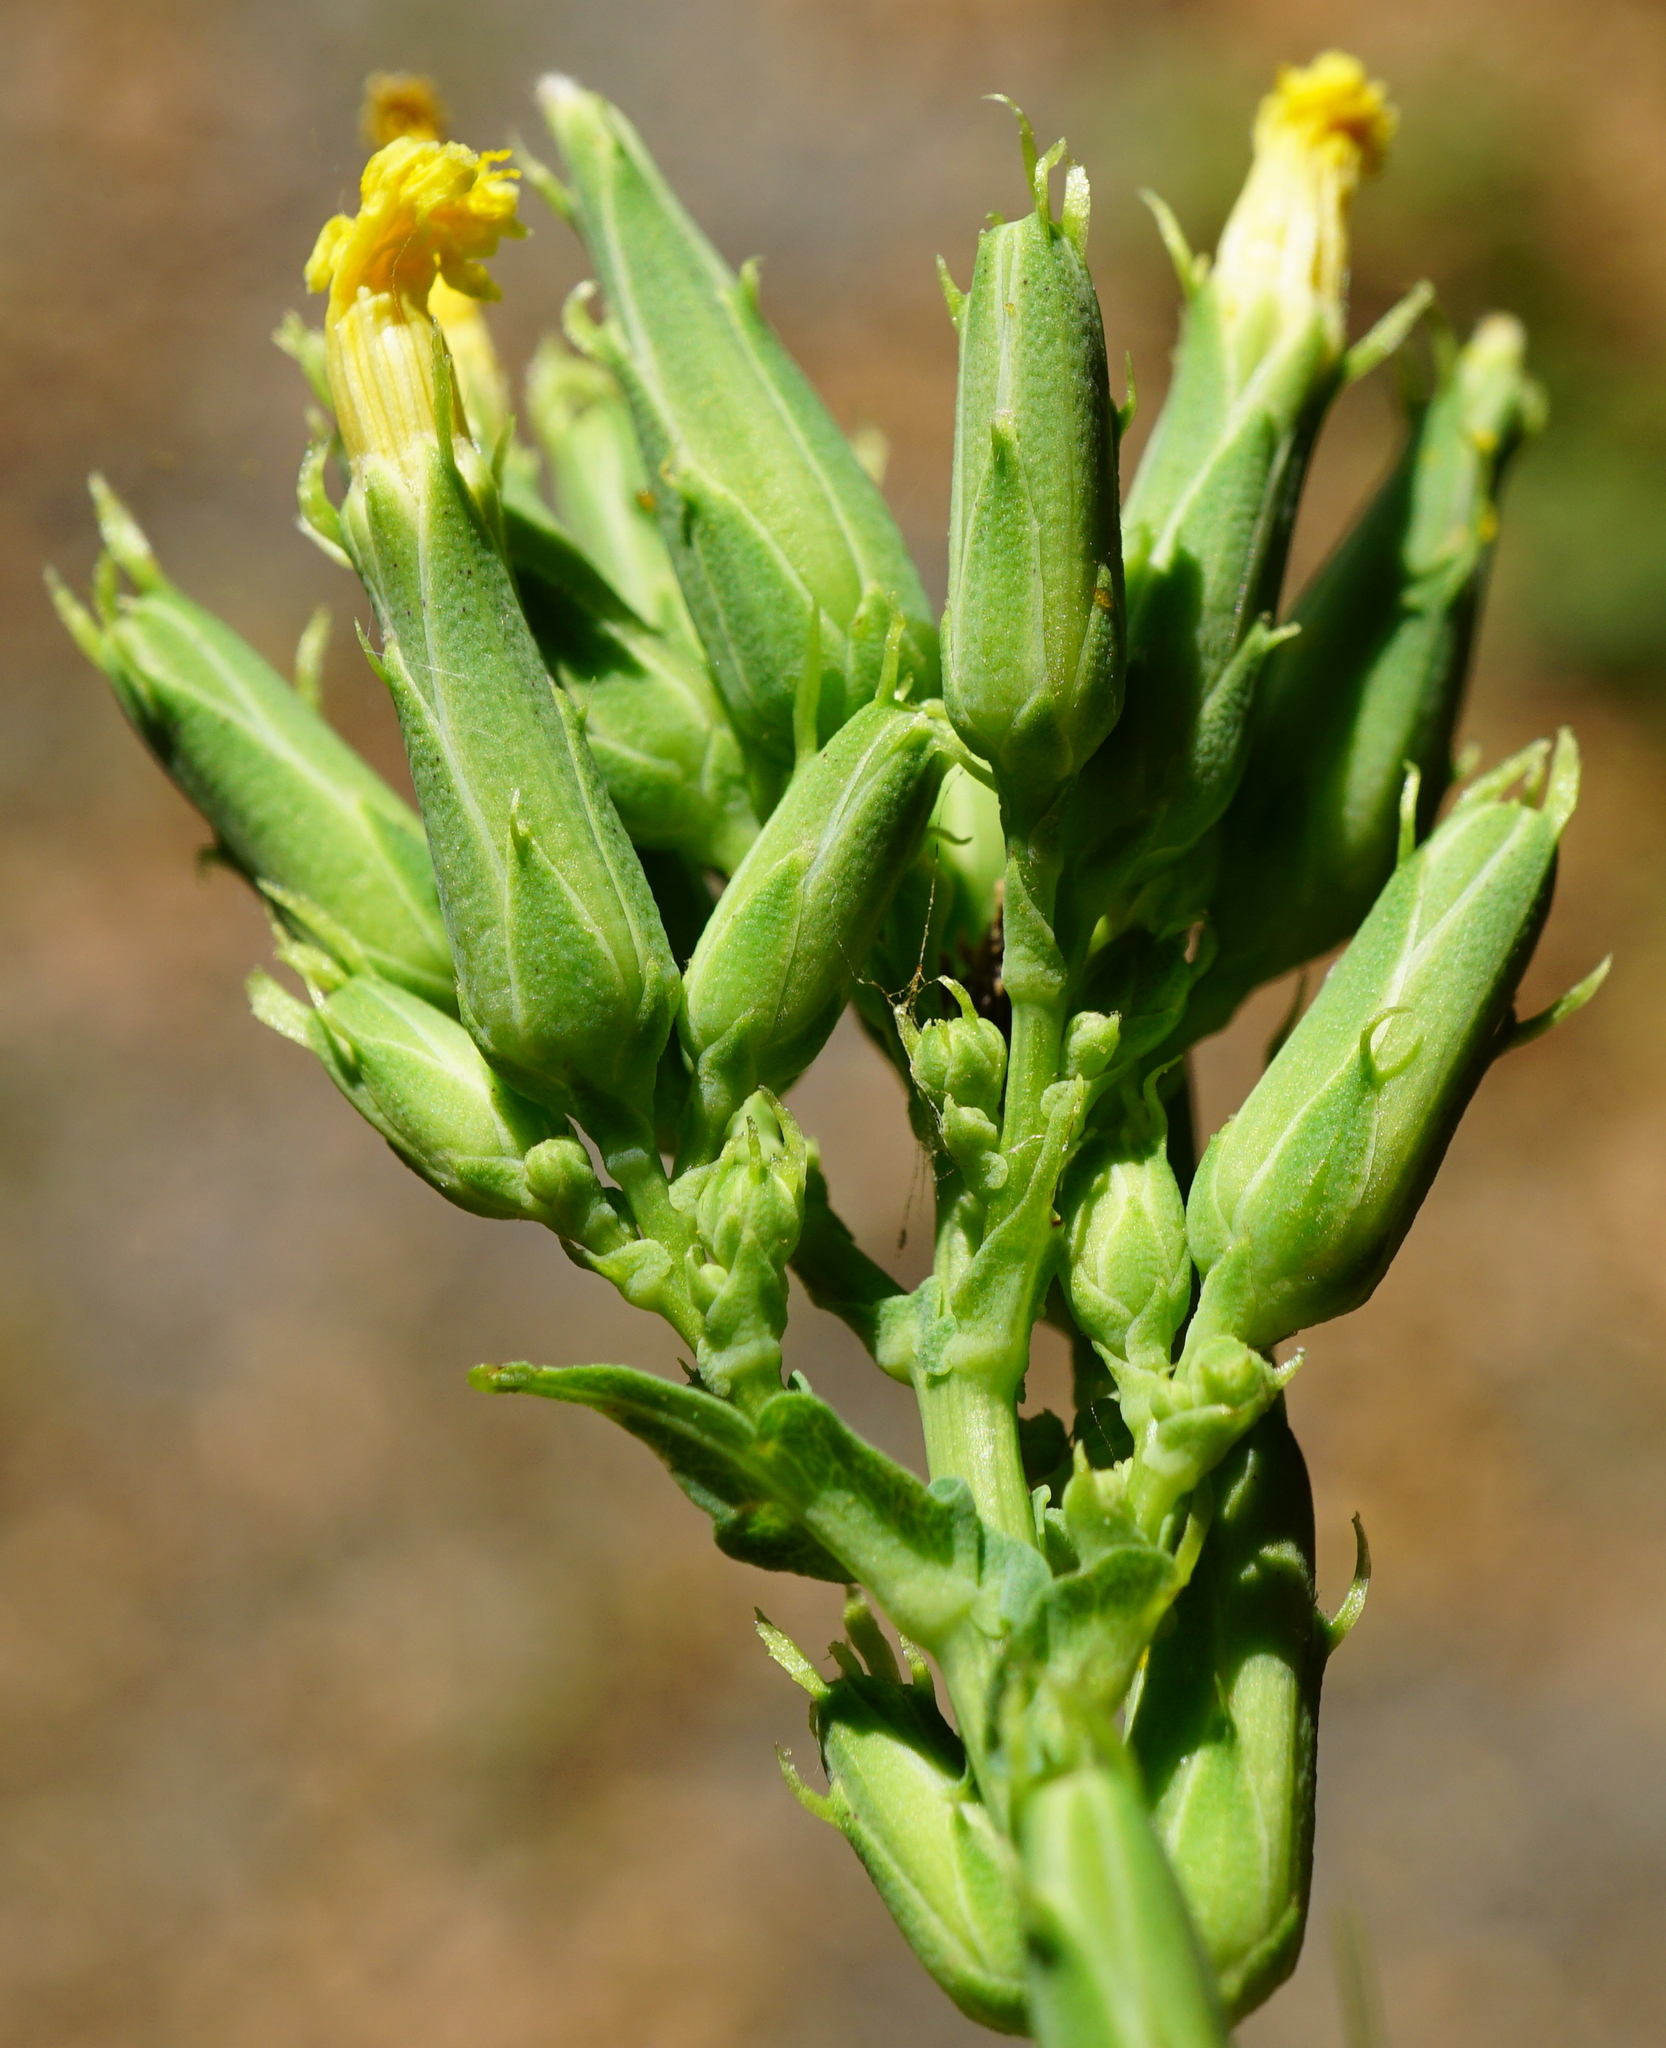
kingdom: Plantae
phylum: Tracheophyta
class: Magnoliopsida
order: Asterales
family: Asteraceae
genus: Lactuca
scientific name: Lactuca quercina
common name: Wild lettuce
